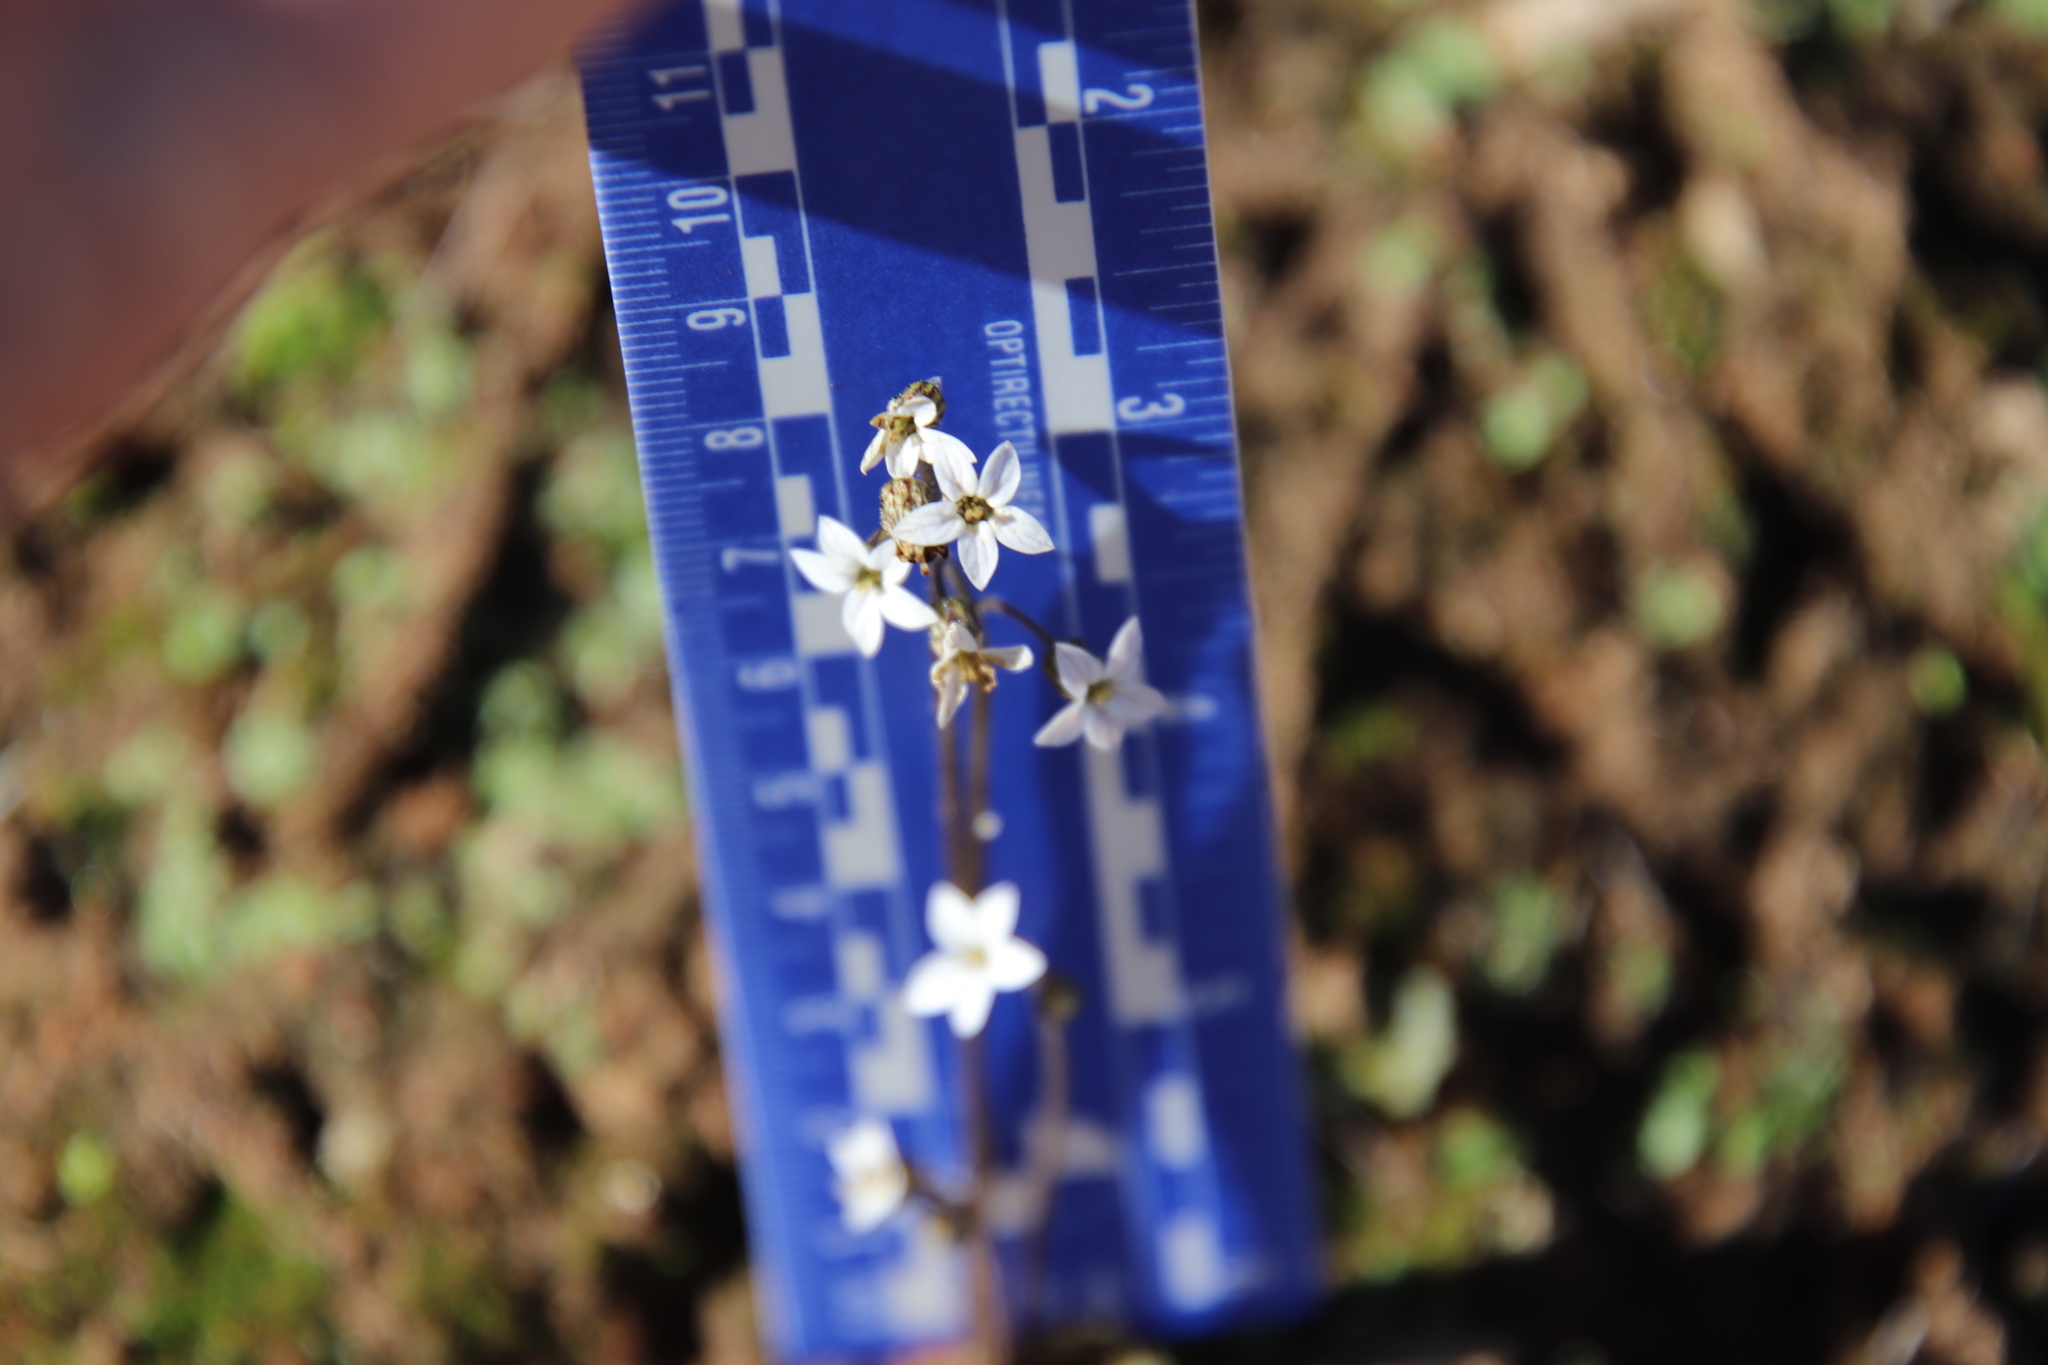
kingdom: Plantae
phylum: Tracheophyta
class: Magnoliopsida
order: Saxifragales
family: Saxifragaceae
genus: Jepsonia
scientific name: Jepsonia parryi
